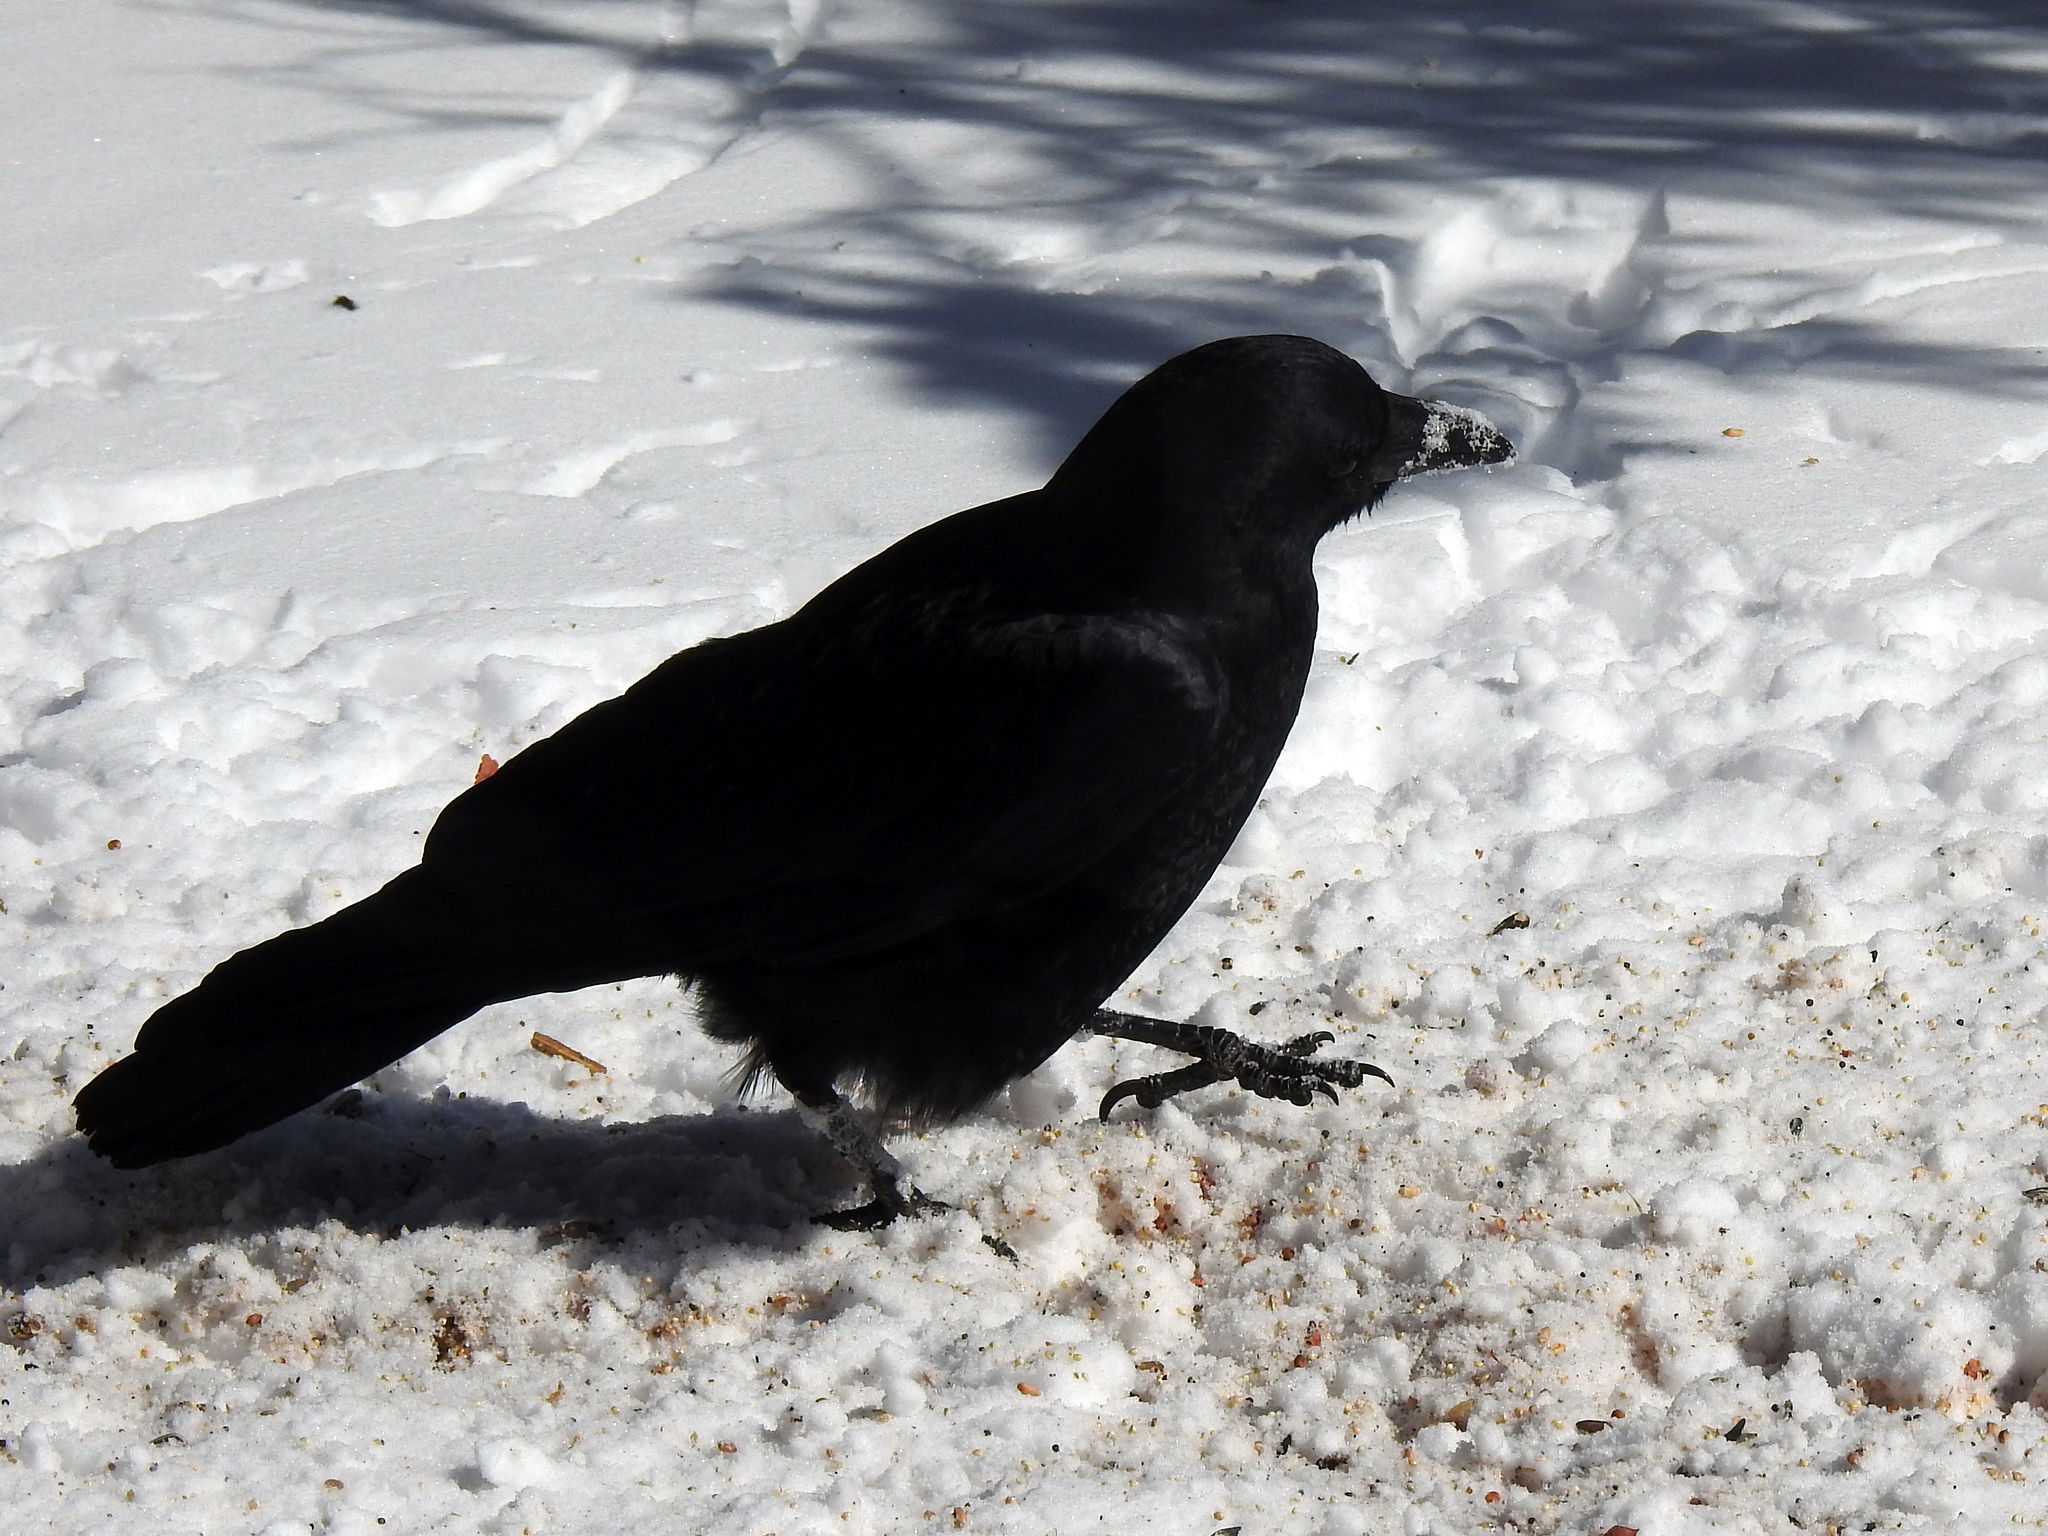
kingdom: Animalia
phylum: Chordata
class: Aves
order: Passeriformes
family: Corvidae
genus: Corvus
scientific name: Corvus brachyrhynchos
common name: American crow
